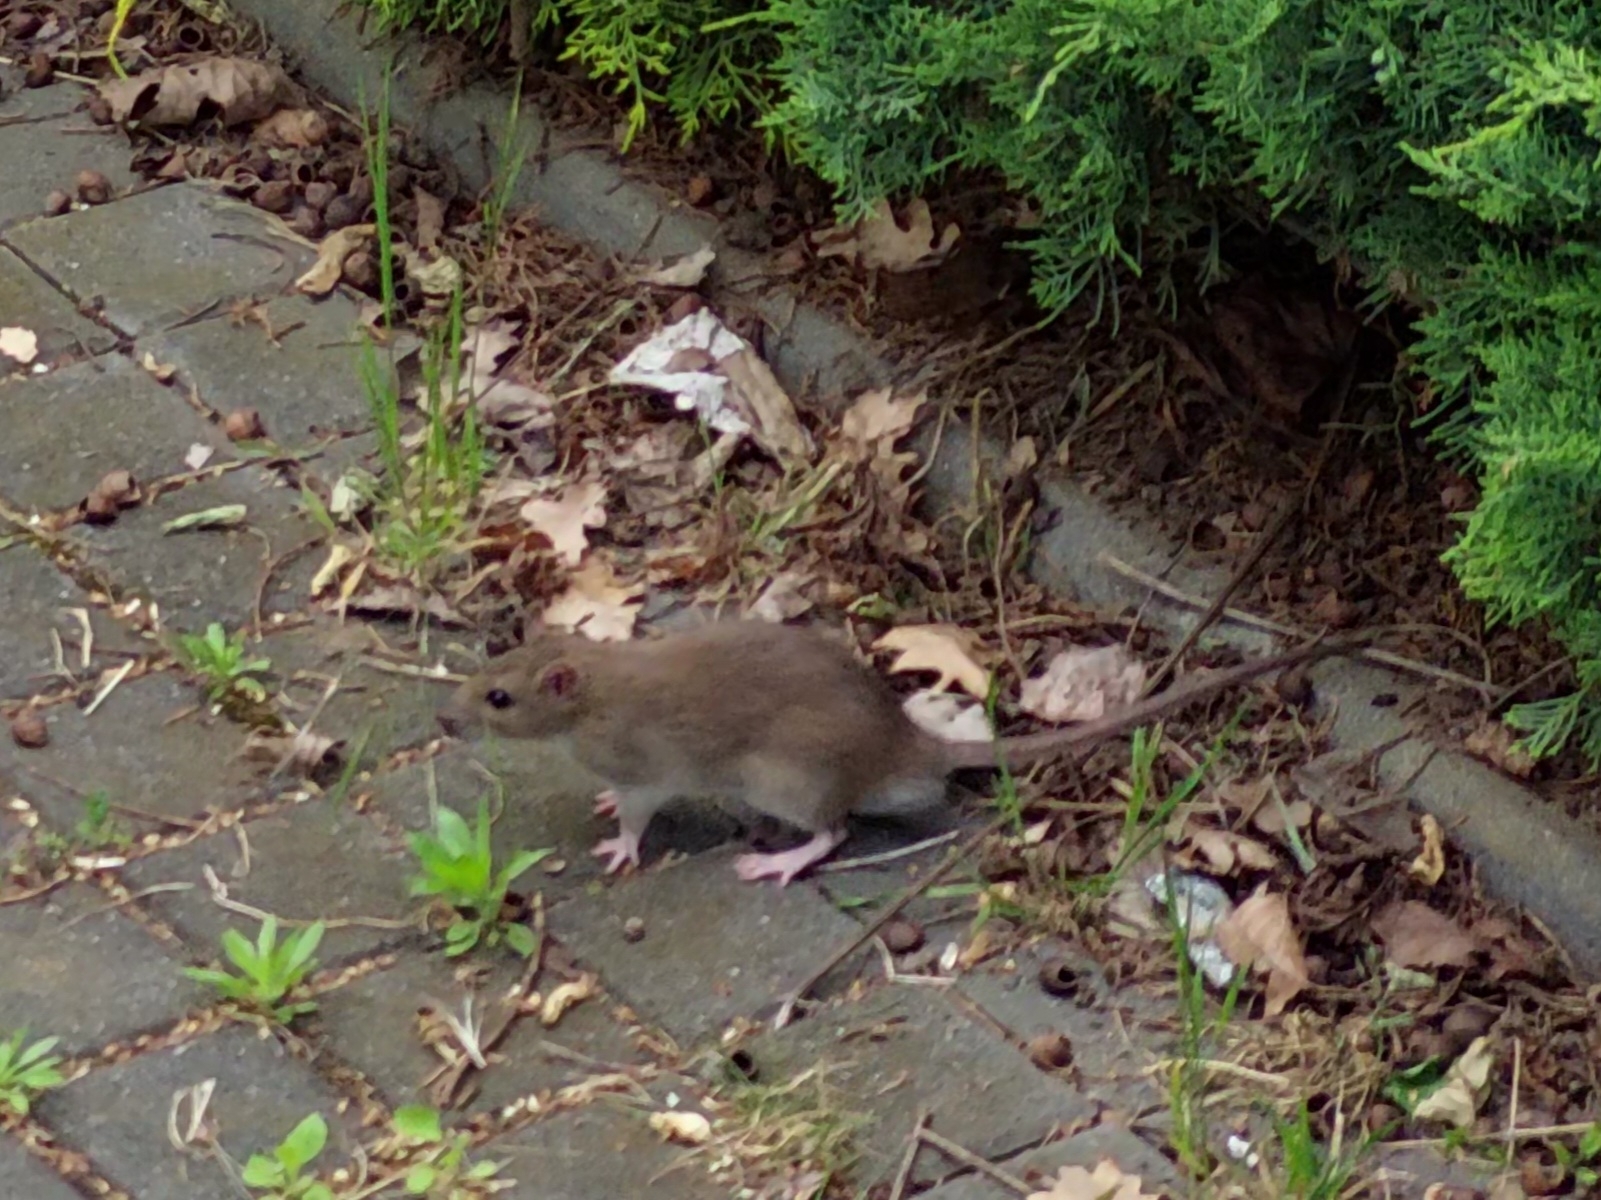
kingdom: Animalia
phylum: Chordata
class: Mammalia
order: Rodentia
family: Muridae
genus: Rattus
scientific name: Rattus norvegicus
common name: Brown rat
